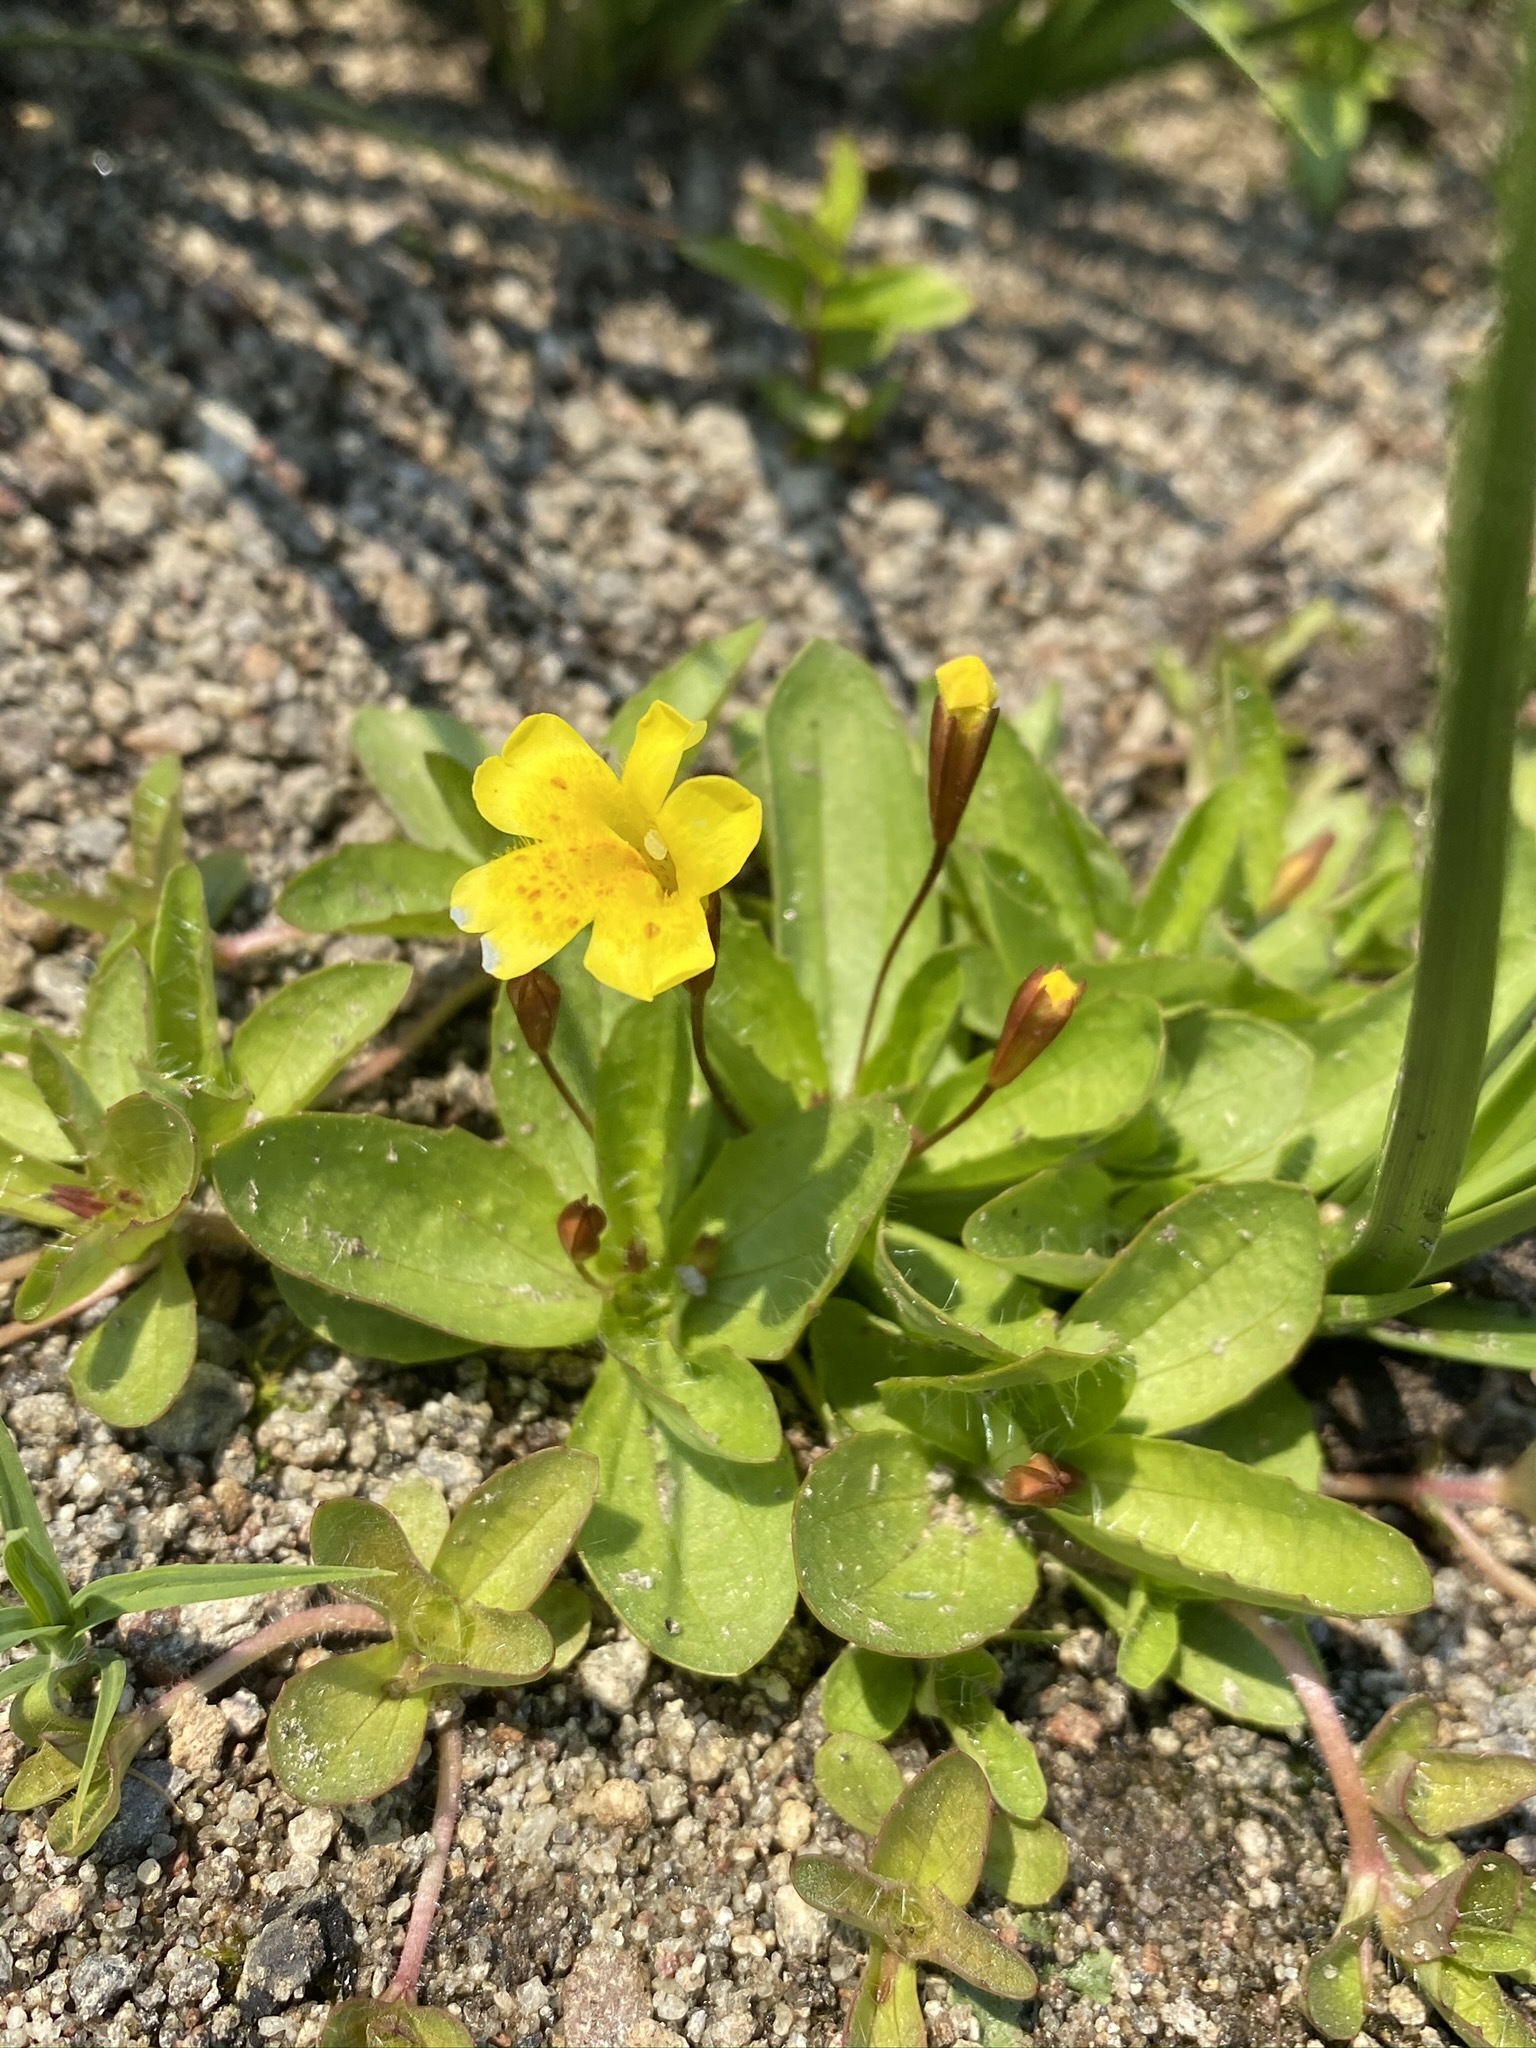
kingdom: Plantae
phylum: Tracheophyta
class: Magnoliopsida
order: Lamiales
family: Phrymaceae
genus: Erythranthe
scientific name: Erythranthe primuloides
